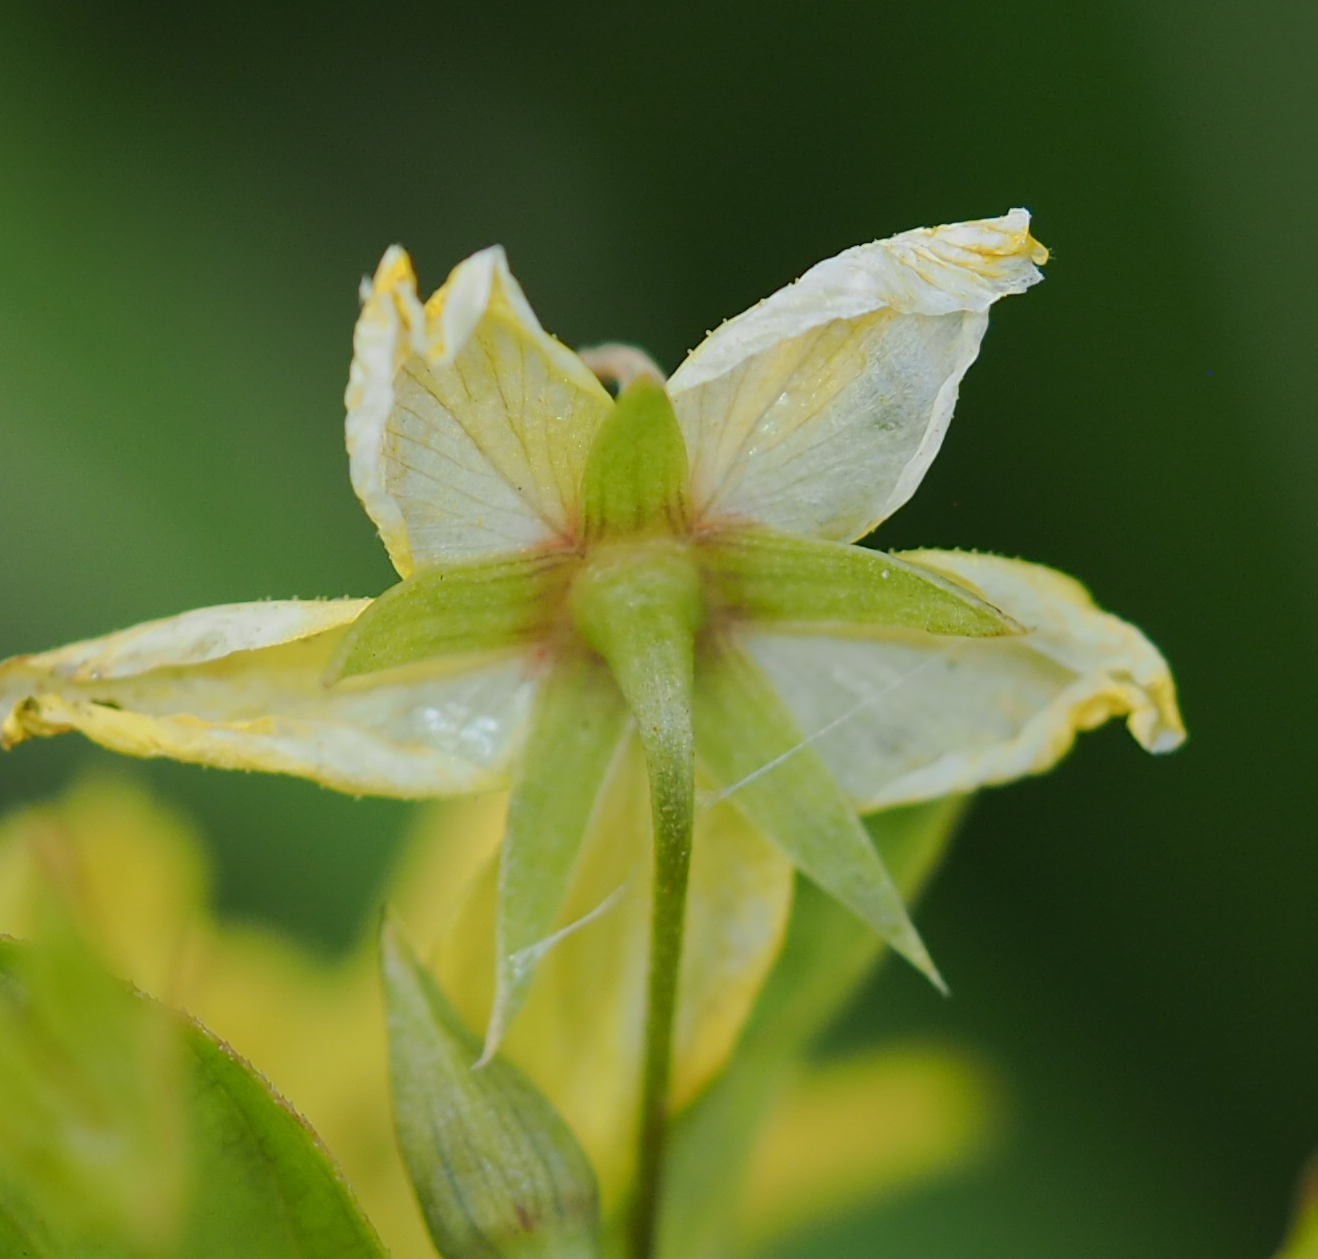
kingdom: Plantae
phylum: Tracheophyta
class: Magnoliopsida
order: Asterales
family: Asteraceae
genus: Achillea
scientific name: Achillea millefolium
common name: Yarrow
